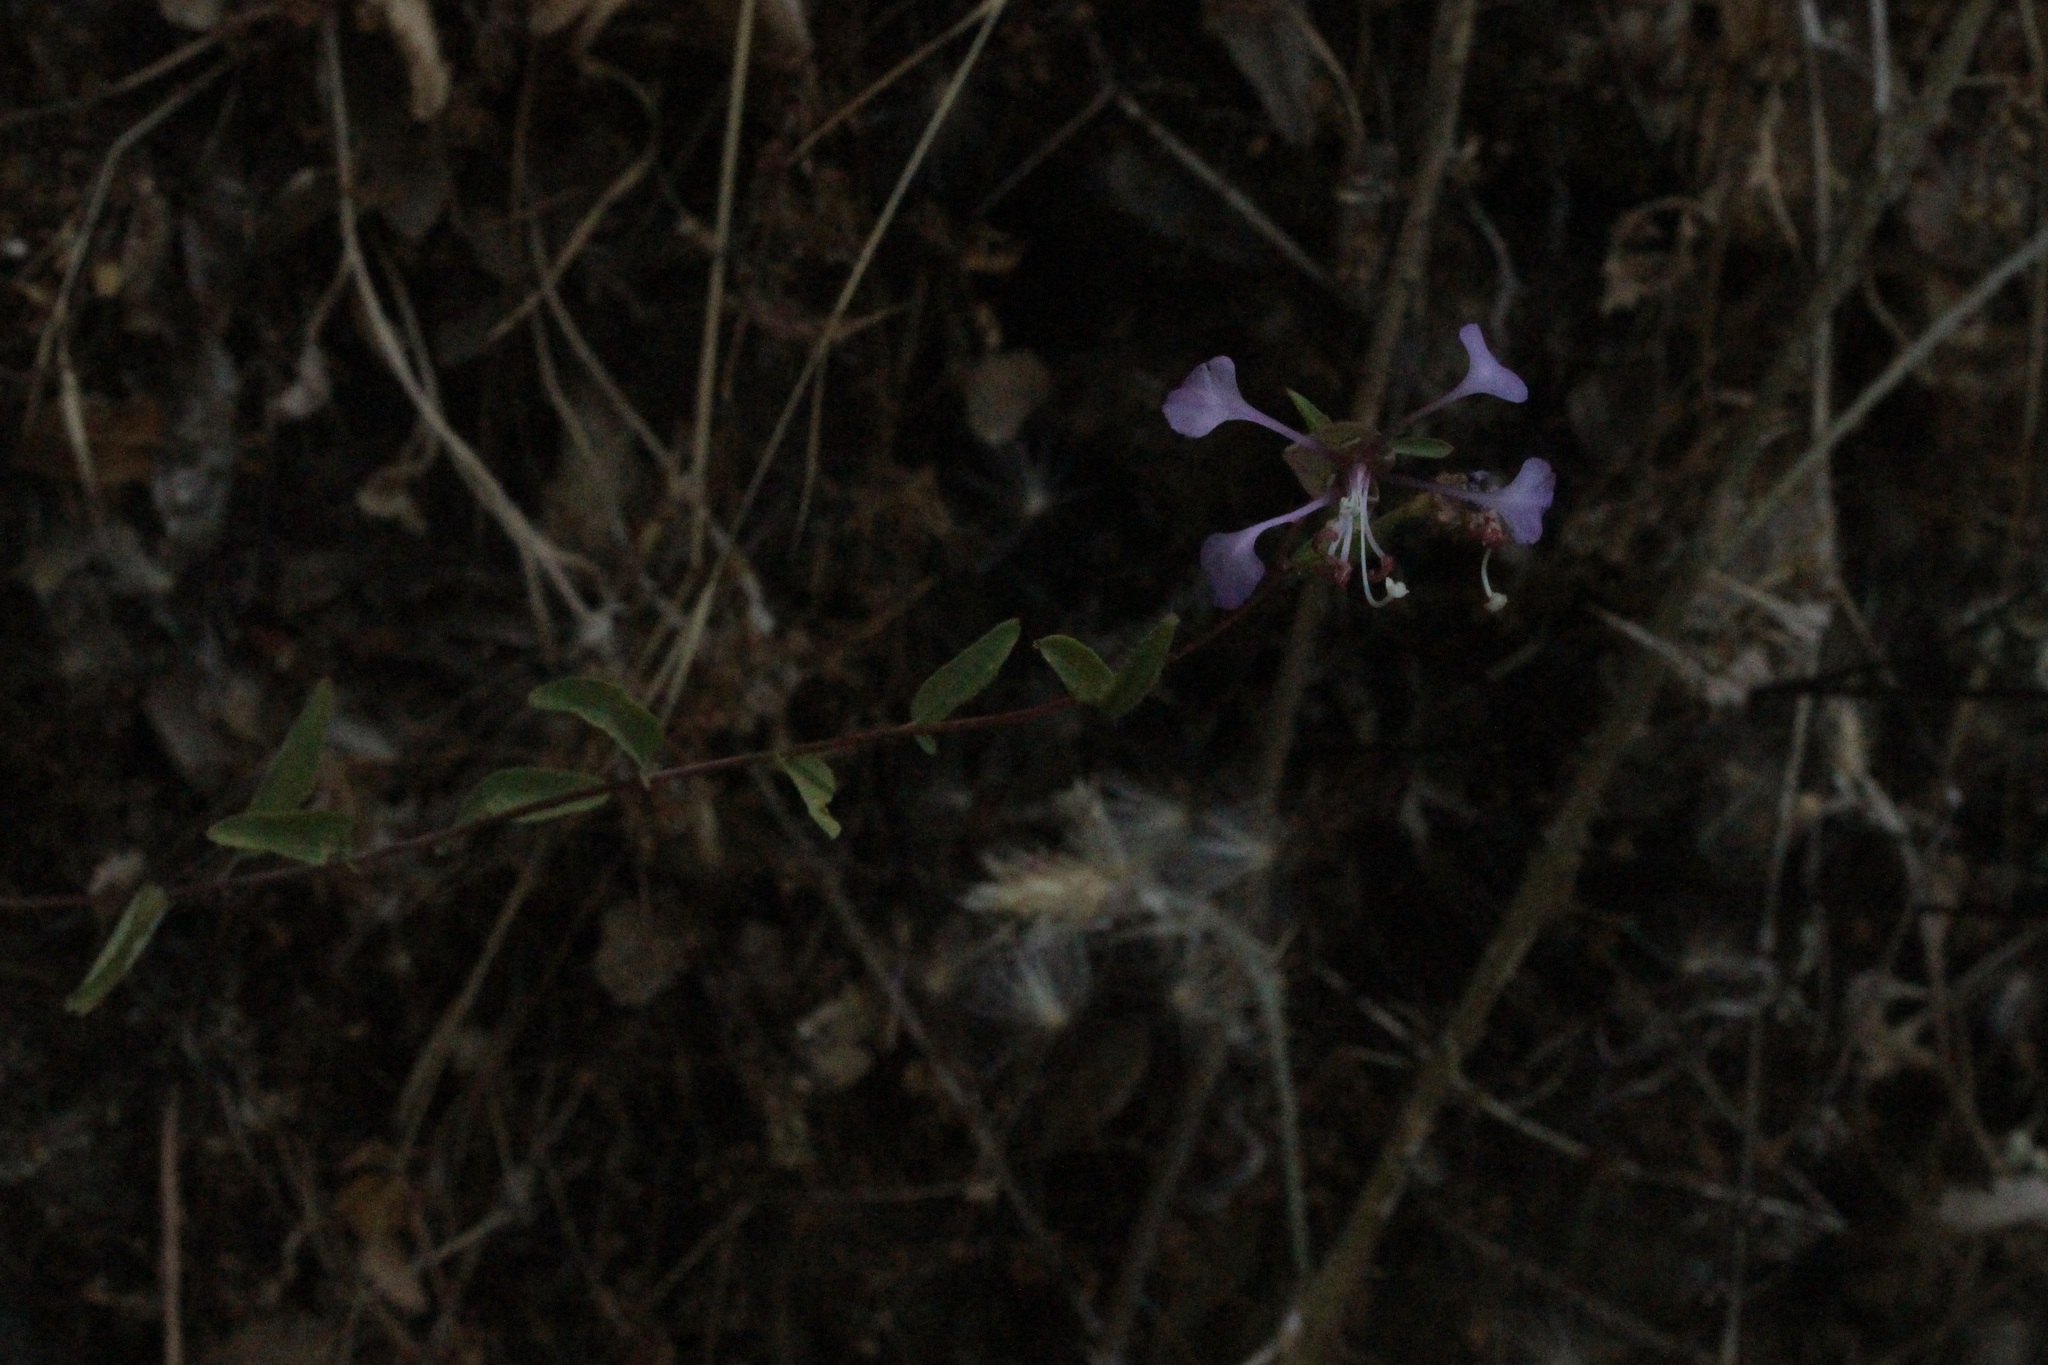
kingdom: Plantae
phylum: Tracheophyta
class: Magnoliopsida
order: Myrtales
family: Onagraceae
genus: Clarkia
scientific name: Clarkia unguiculata
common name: Clarkia
